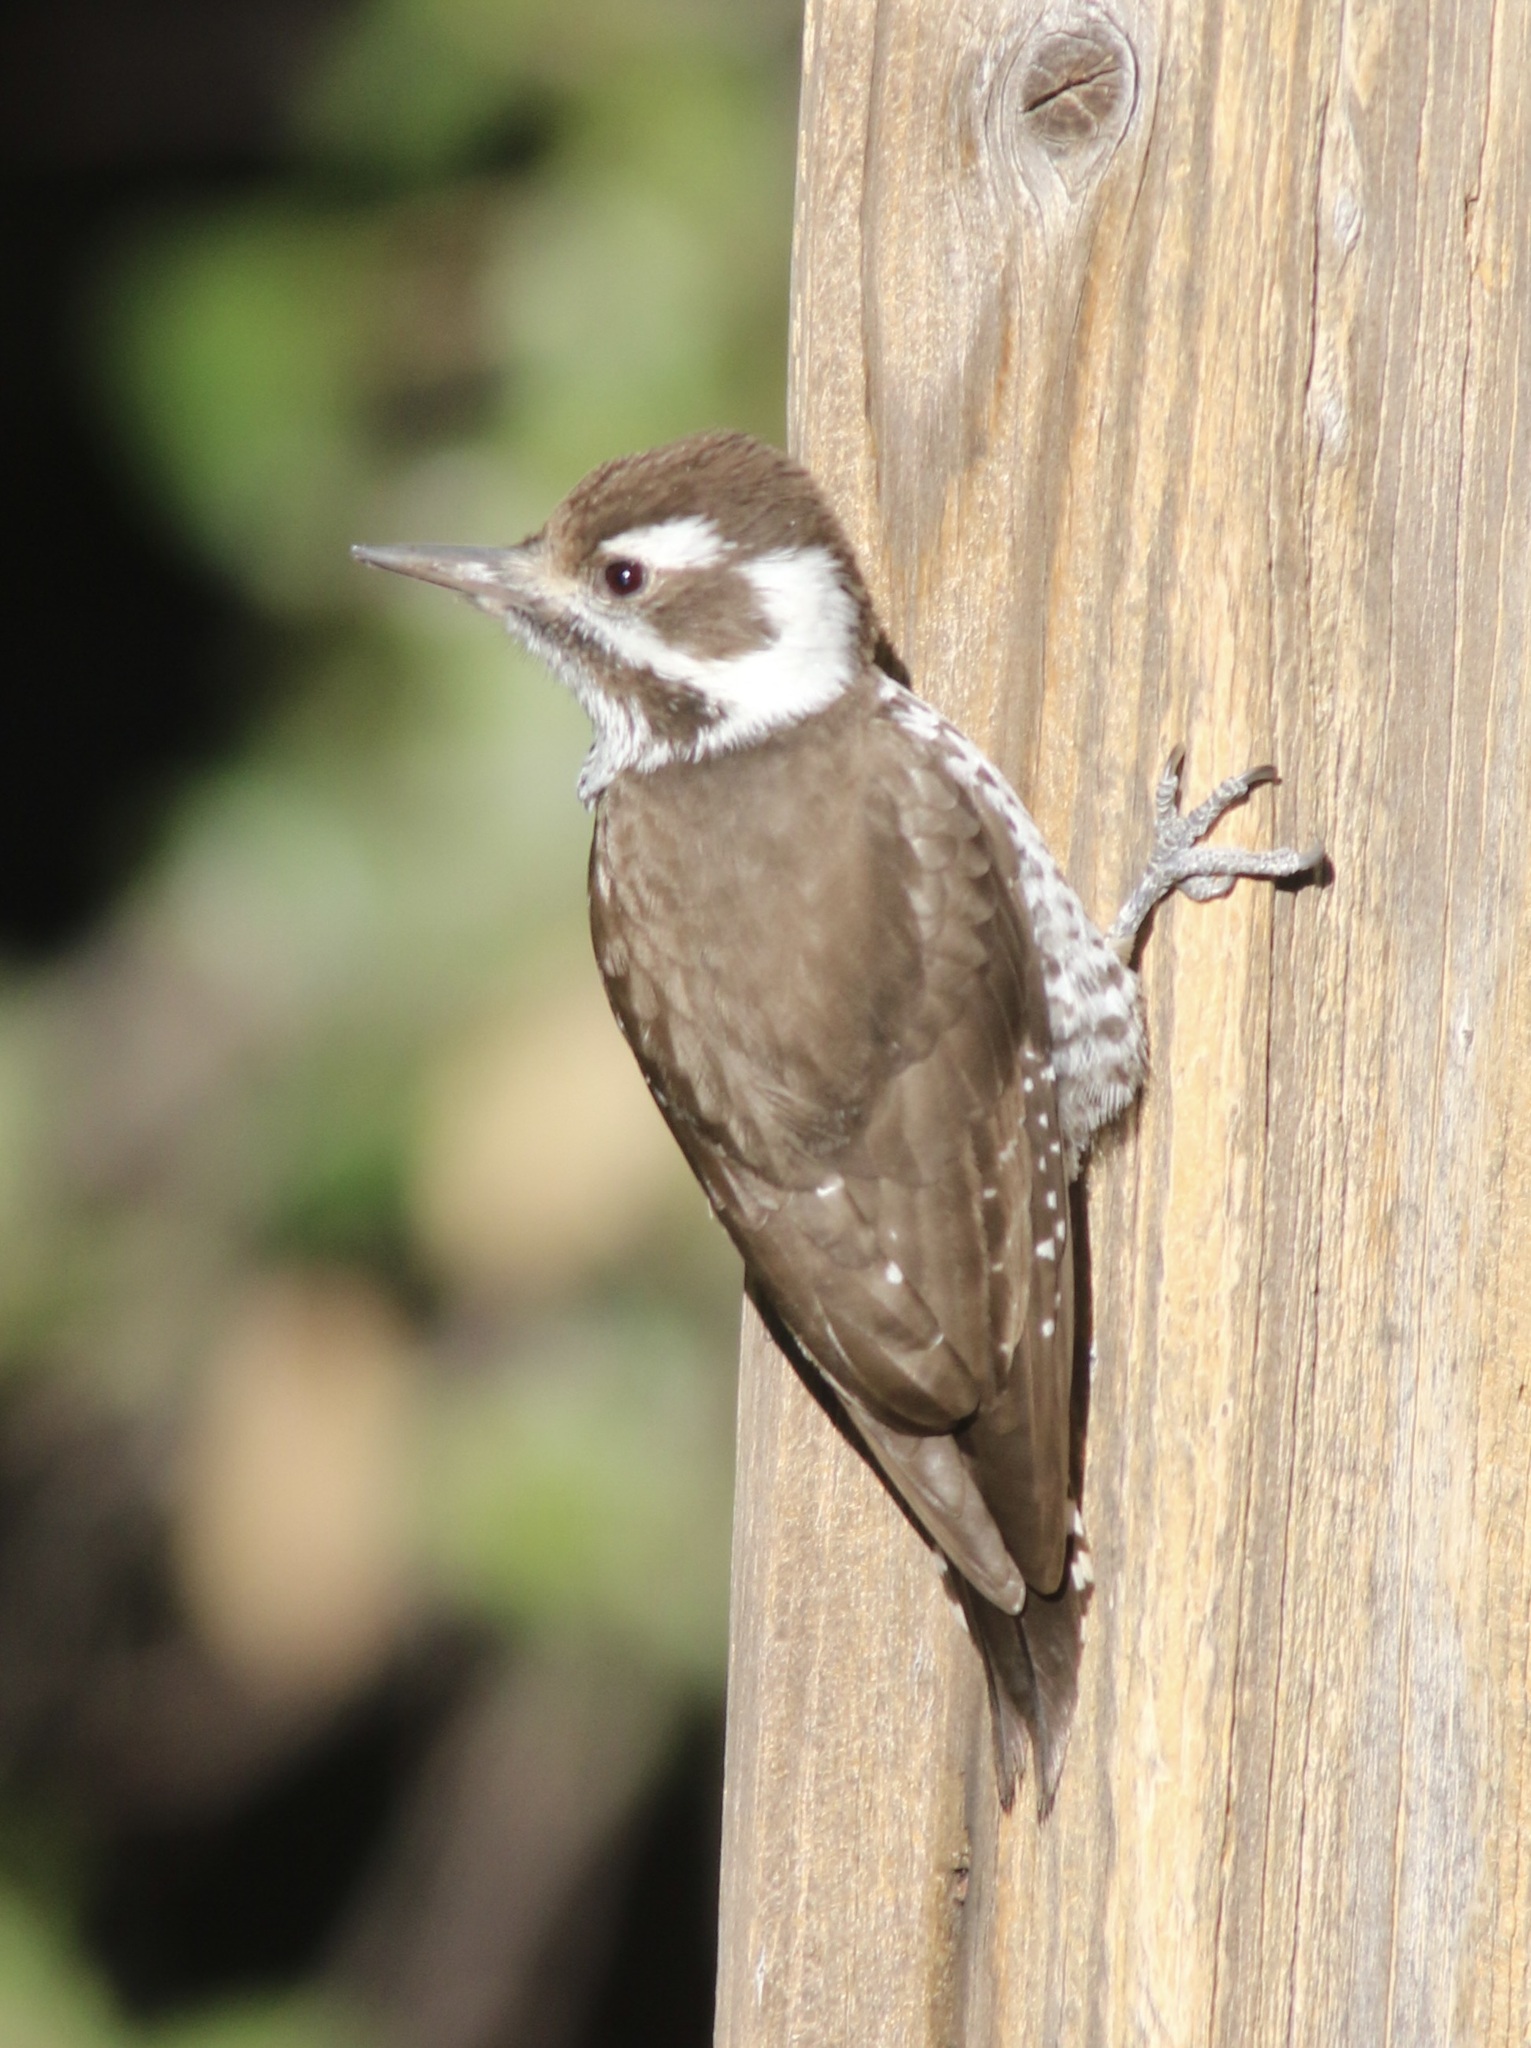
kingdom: Animalia
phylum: Chordata
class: Aves
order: Piciformes
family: Picidae
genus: Leuconotopicus
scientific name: Leuconotopicus arizonae
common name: Arizona woodpecker
